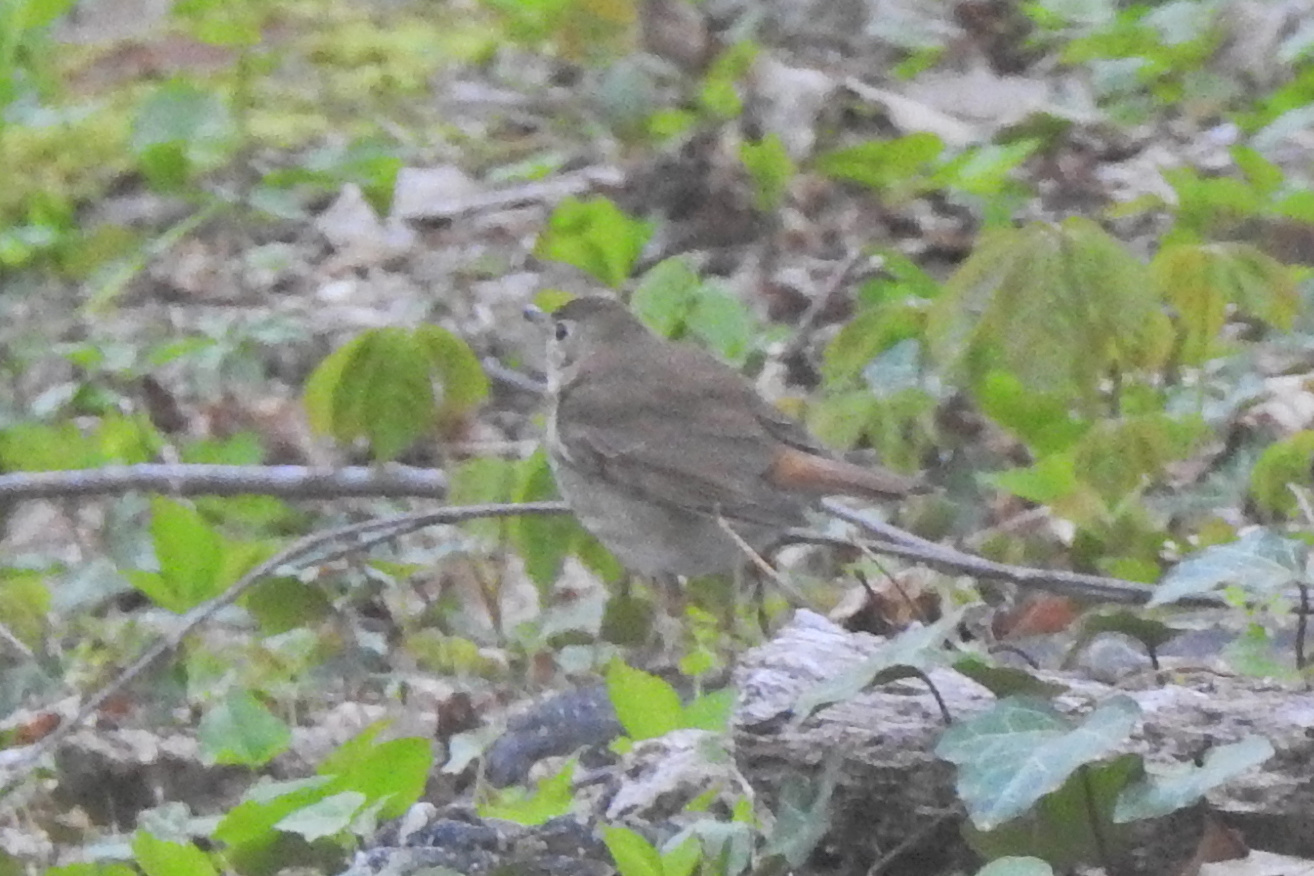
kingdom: Animalia
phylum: Chordata
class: Aves
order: Passeriformes
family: Turdidae
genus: Catharus
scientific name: Catharus guttatus
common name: Hermit thrush
